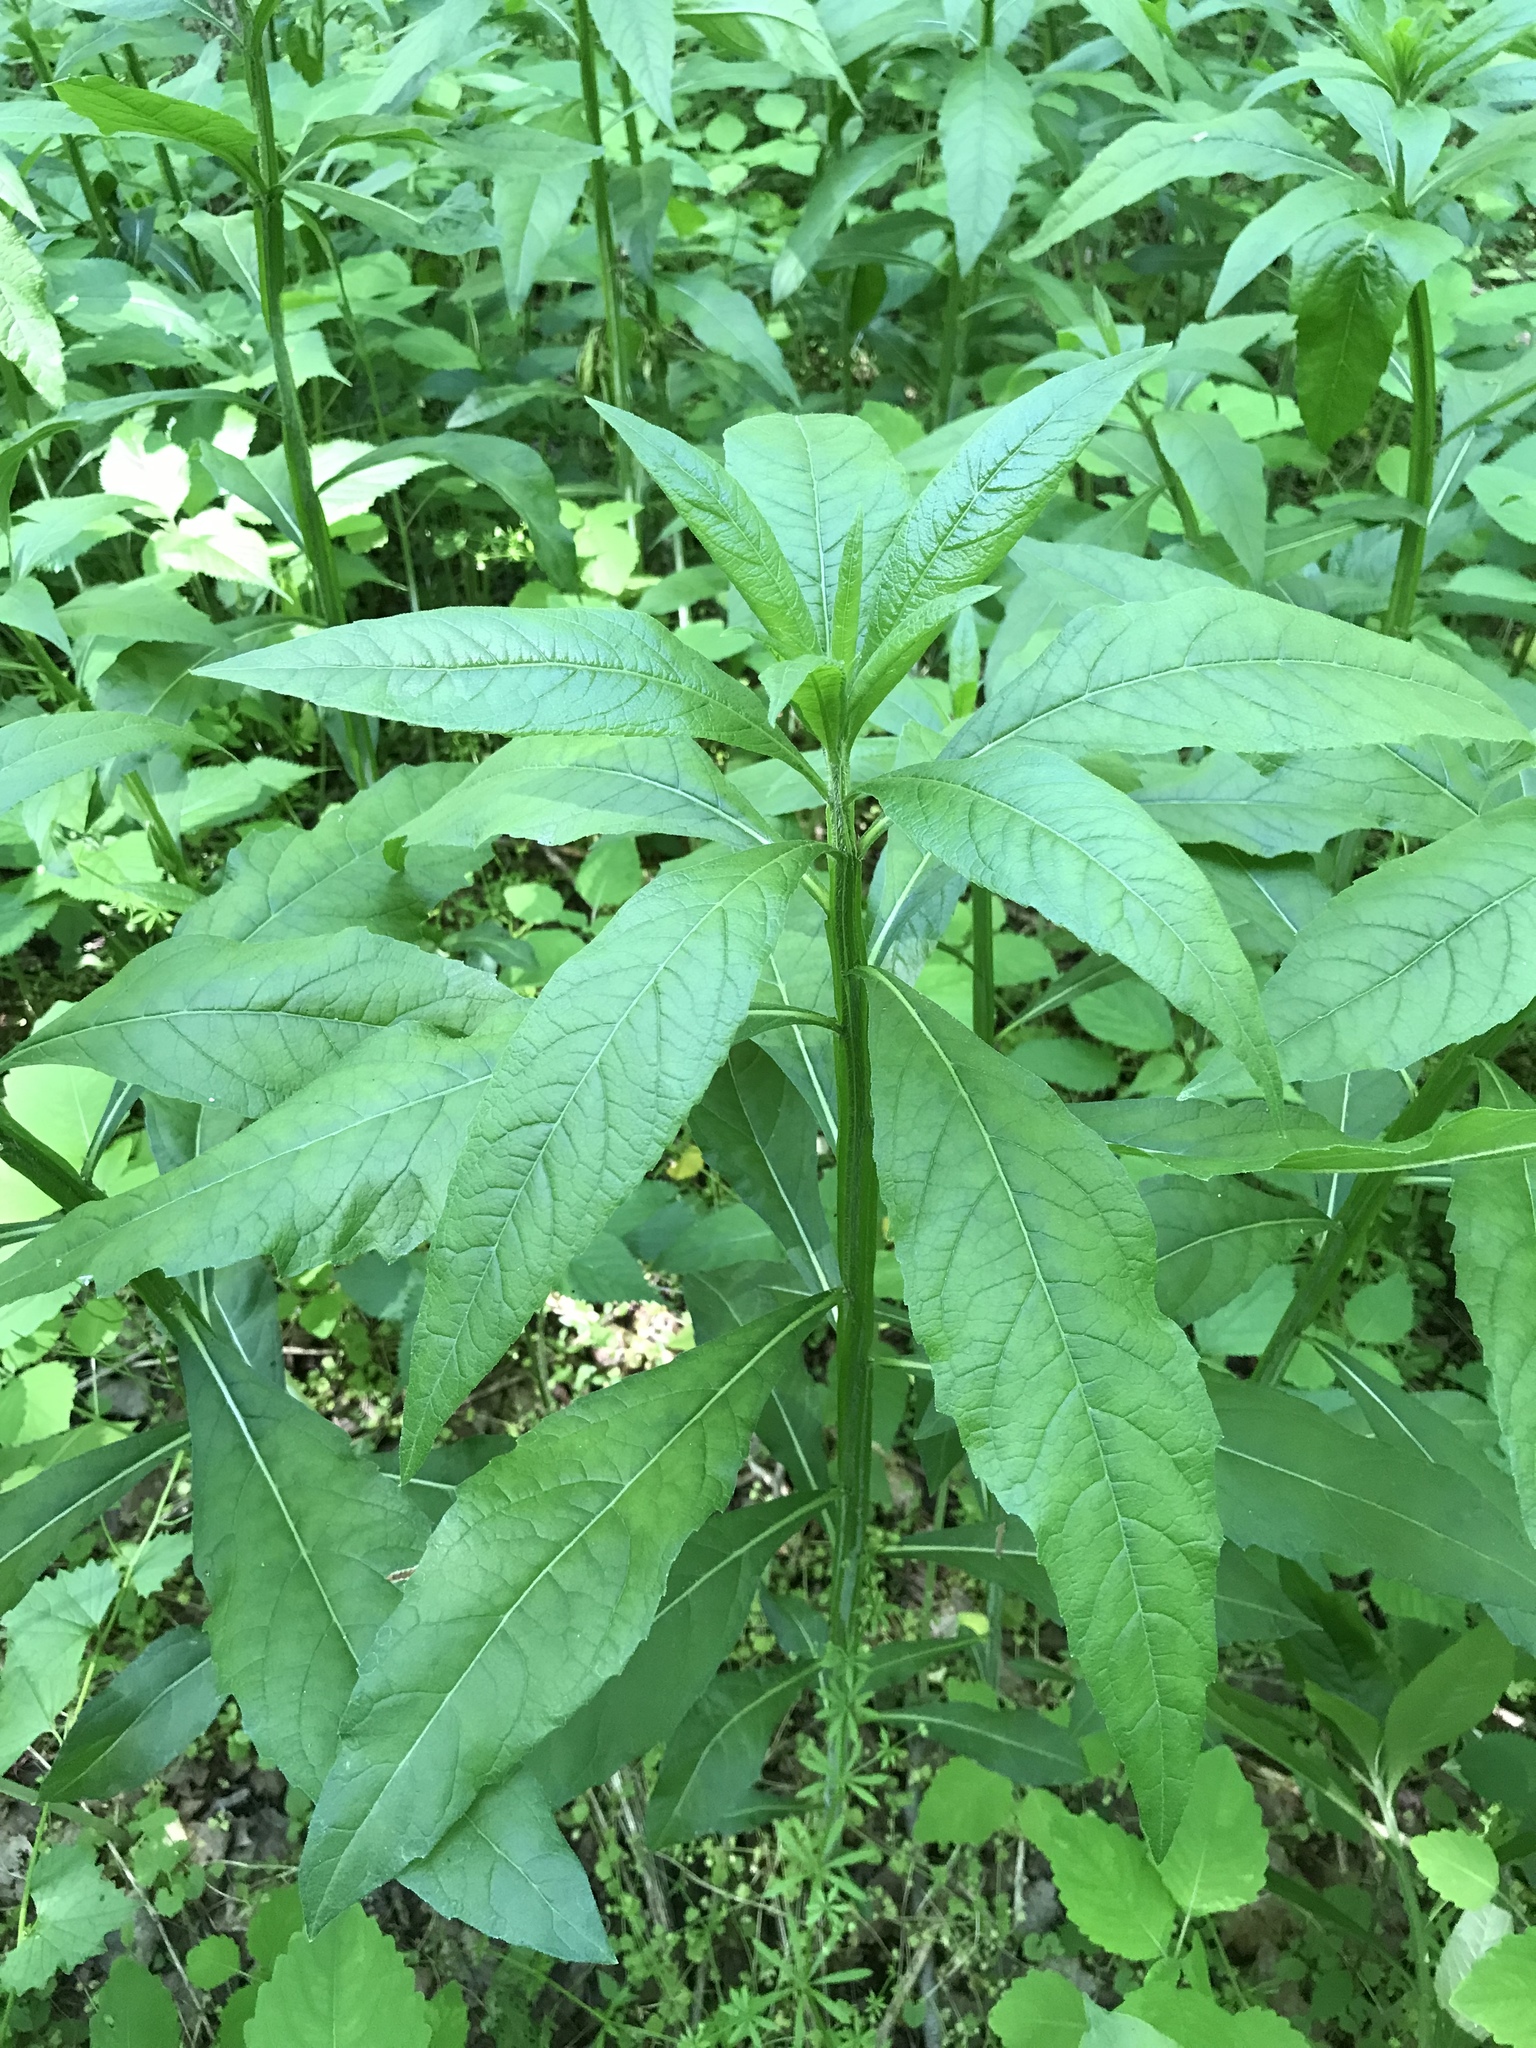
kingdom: Plantae
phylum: Tracheophyta
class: Magnoliopsida
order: Asterales
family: Asteraceae
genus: Verbesina
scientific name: Verbesina alternifolia
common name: Wingstem
